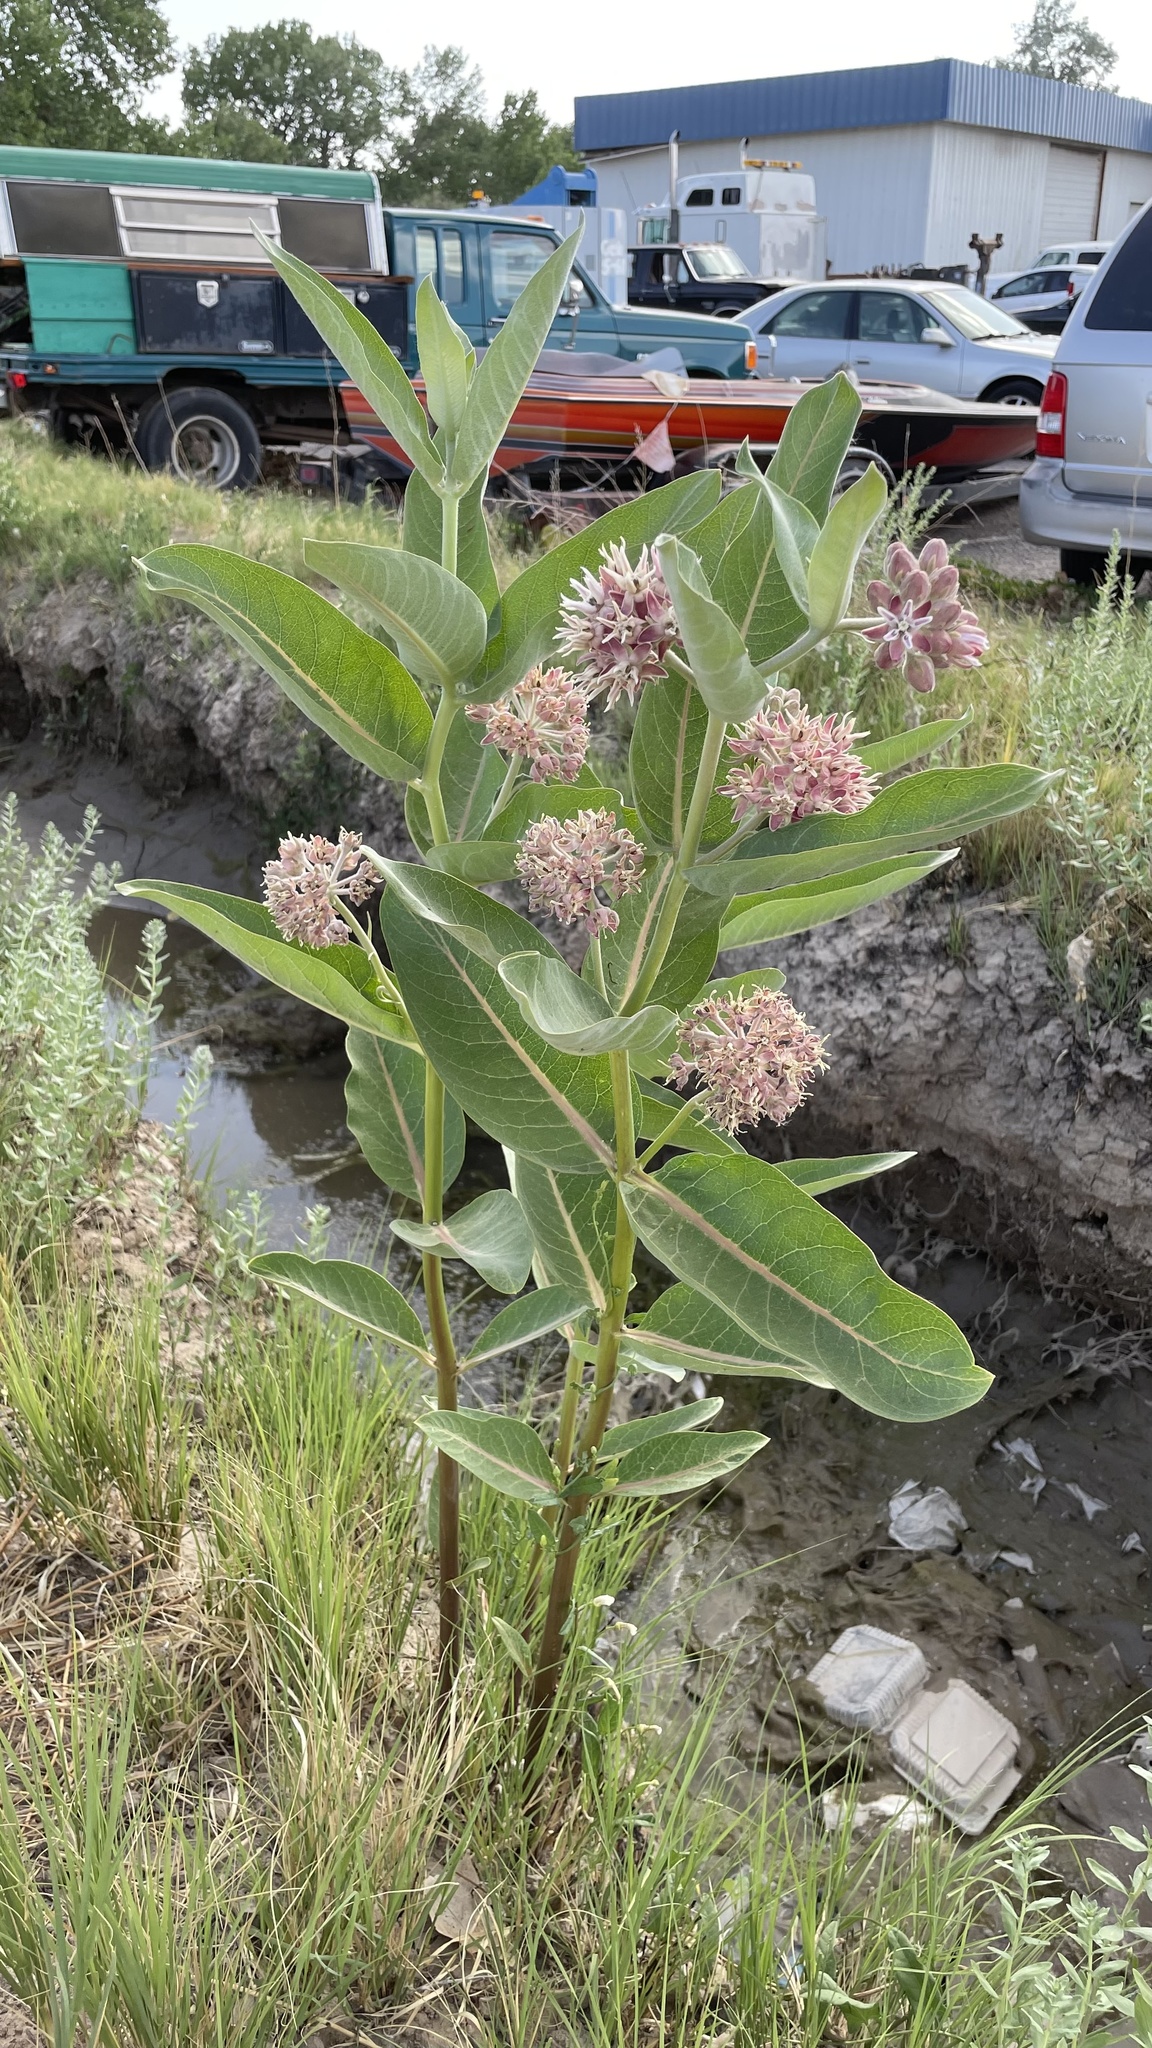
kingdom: Plantae
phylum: Tracheophyta
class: Magnoliopsida
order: Gentianales
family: Apocynaceae
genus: Asclepias
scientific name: Asclepias speciosa
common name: Showy milkweed
